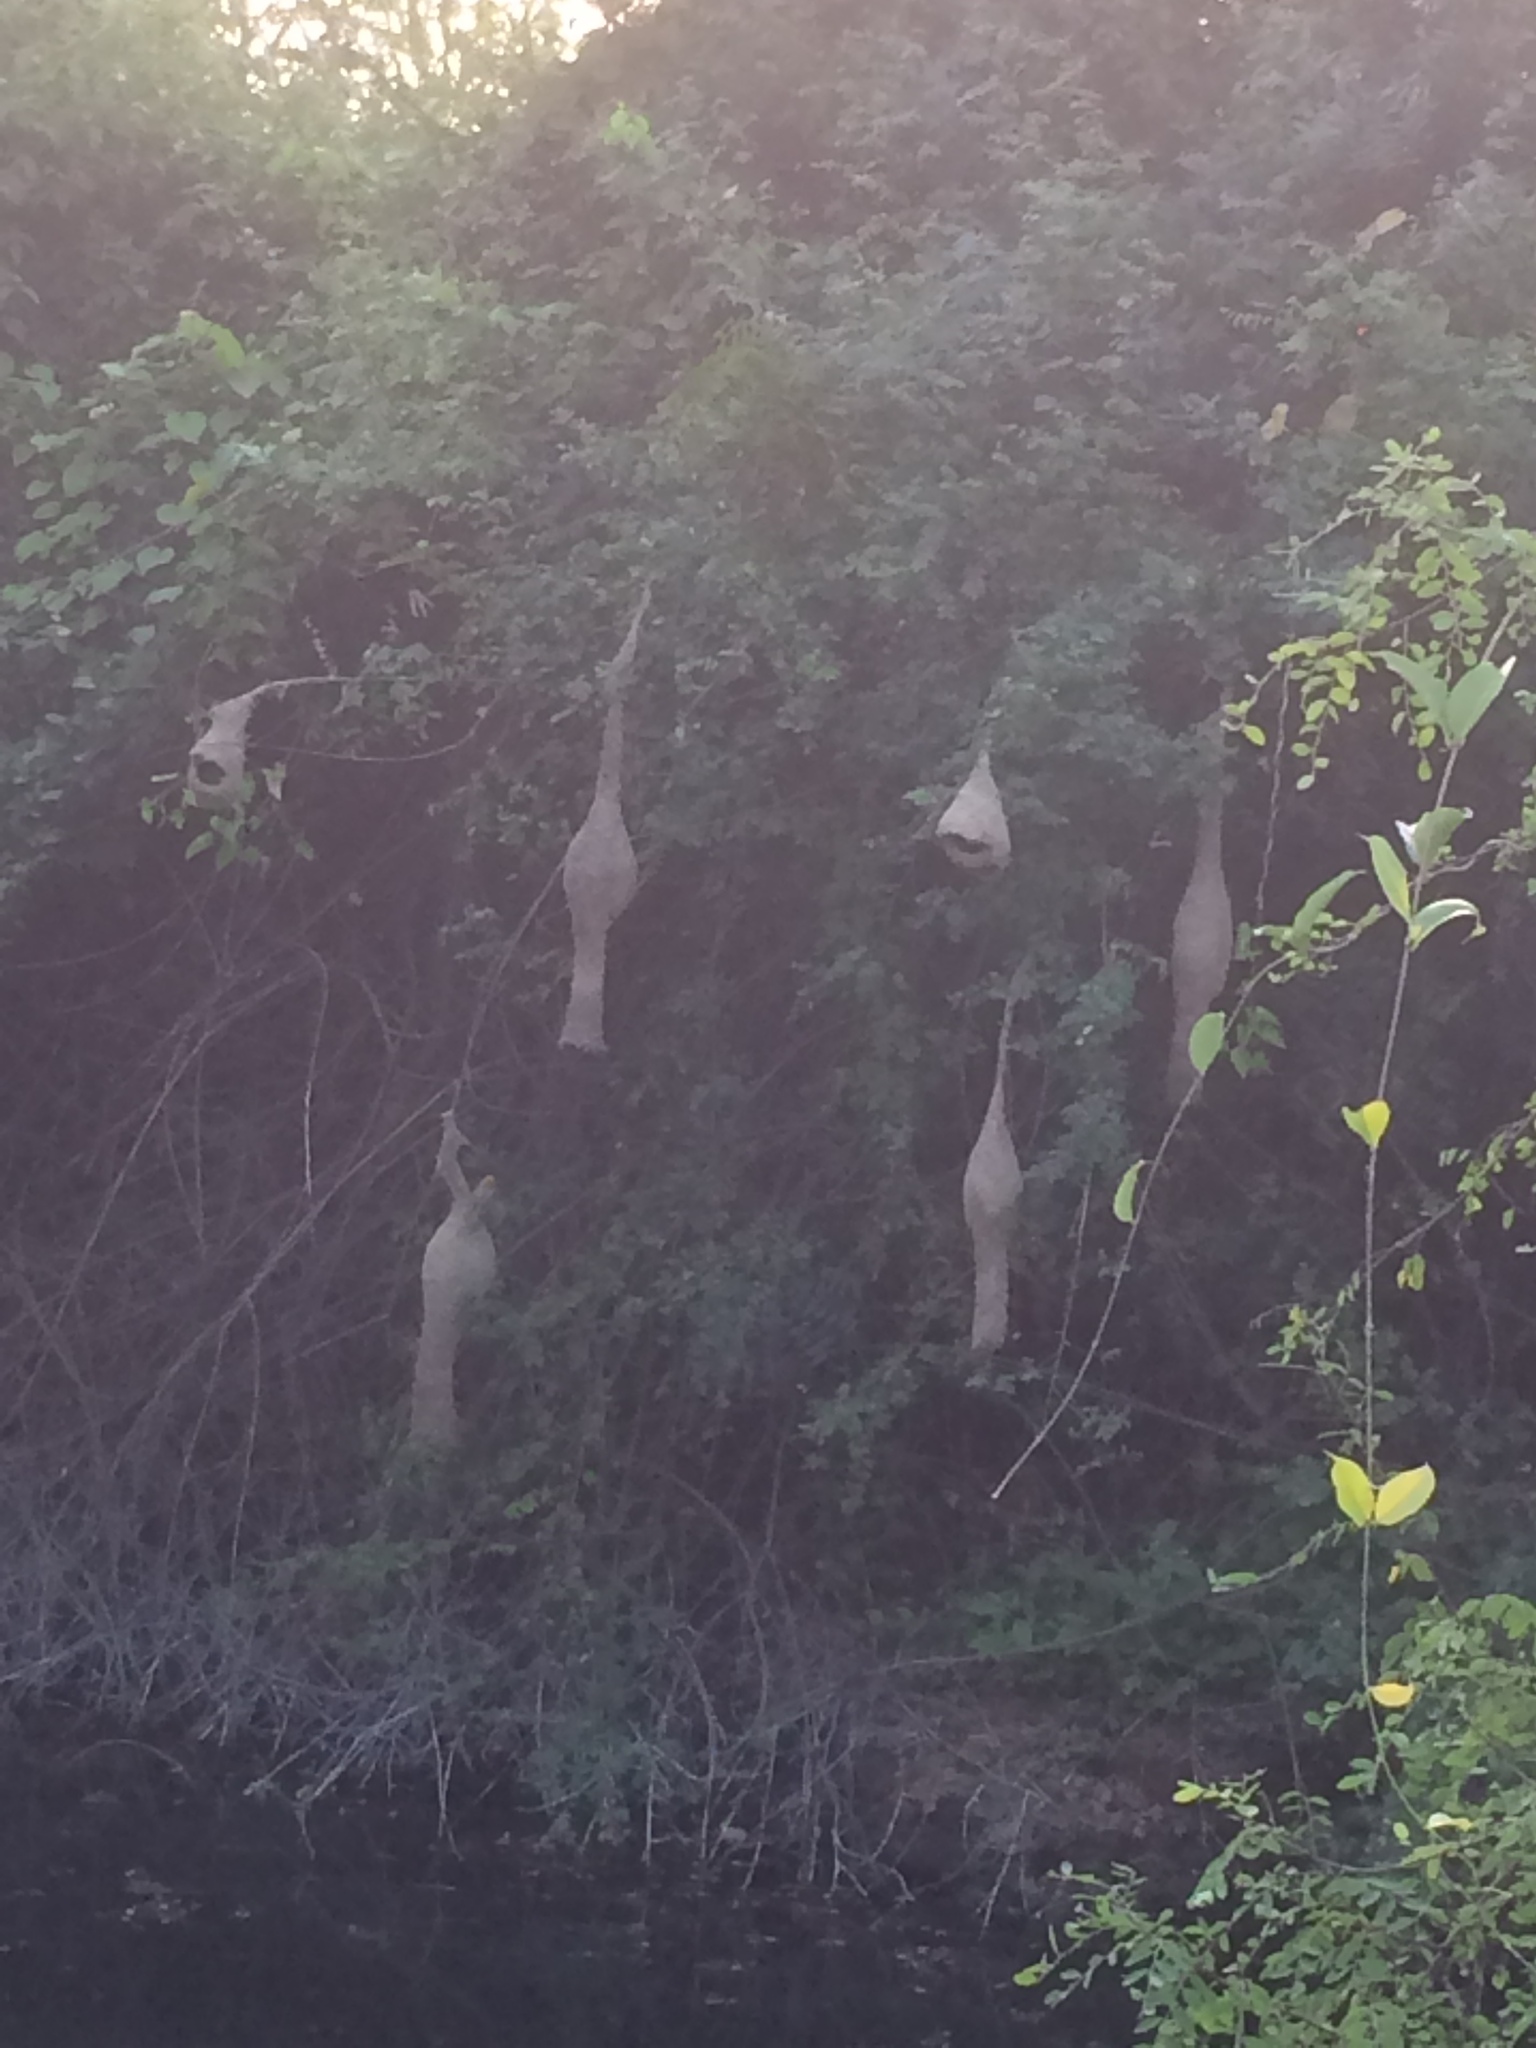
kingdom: Animalia
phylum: Chordata
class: Aves
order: Passeriformes
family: Ploceidae
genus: Ploceus
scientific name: Ploceus philippinus
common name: Baya weaver
